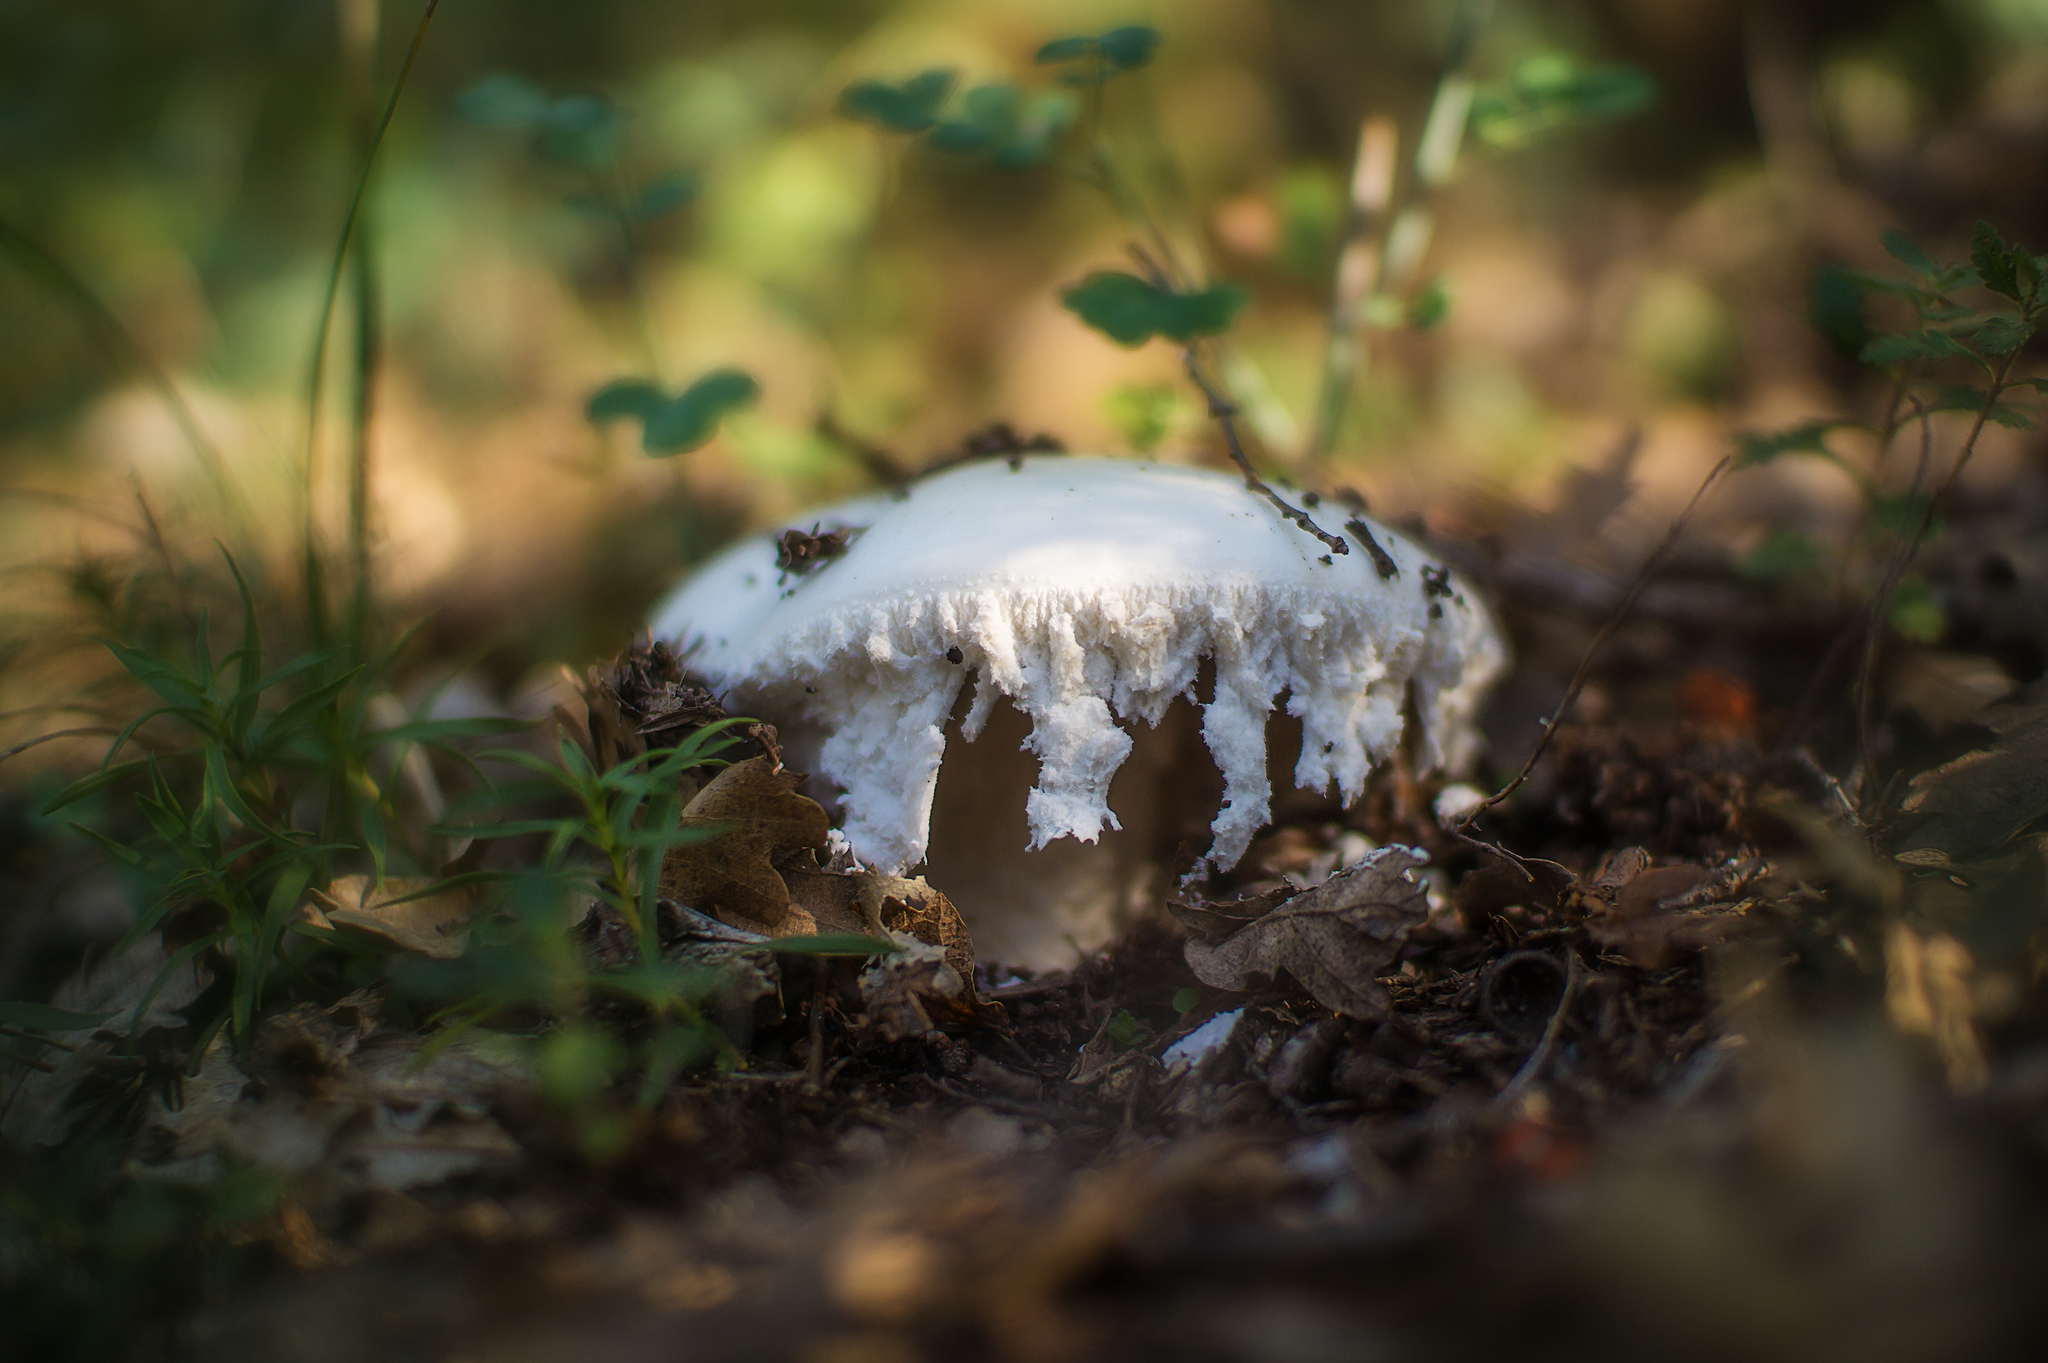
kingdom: Fungi
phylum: Basidiomycota
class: Agaricomycetes
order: Agaricales
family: Amanitaceae
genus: Amanita
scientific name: Amanita ovoidea
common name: Bearded amanita
